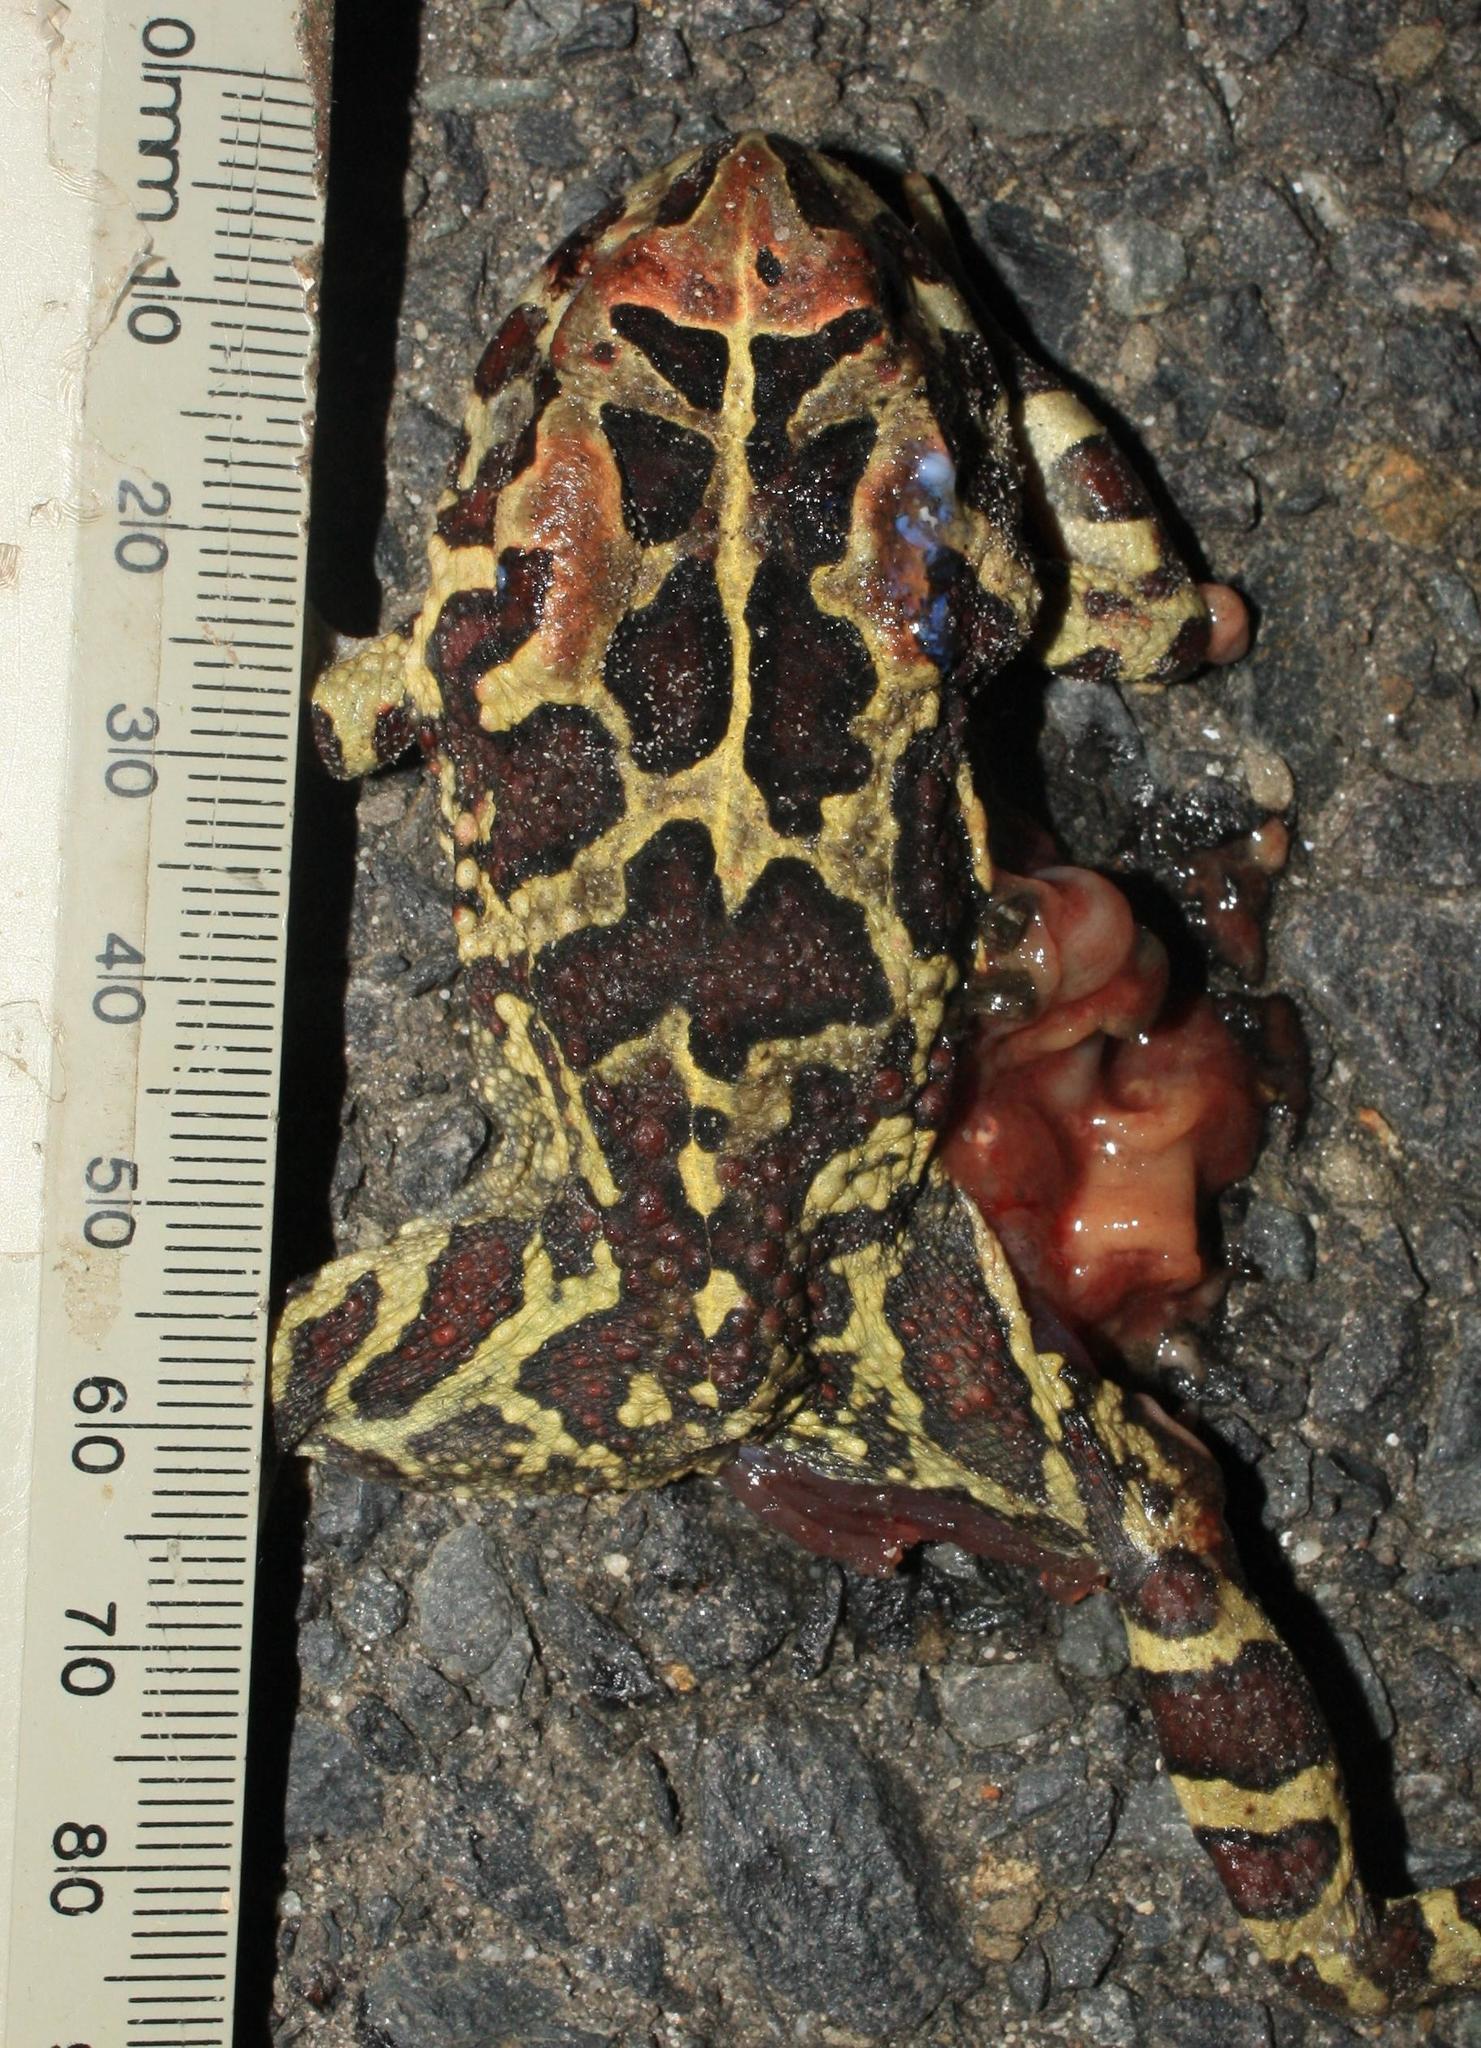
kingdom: Animalia
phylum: Chordata
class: Amphibia
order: Anura
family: Bufonidae
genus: Sclerophrys
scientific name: Sclerophrys pantherina
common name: Panther toad
